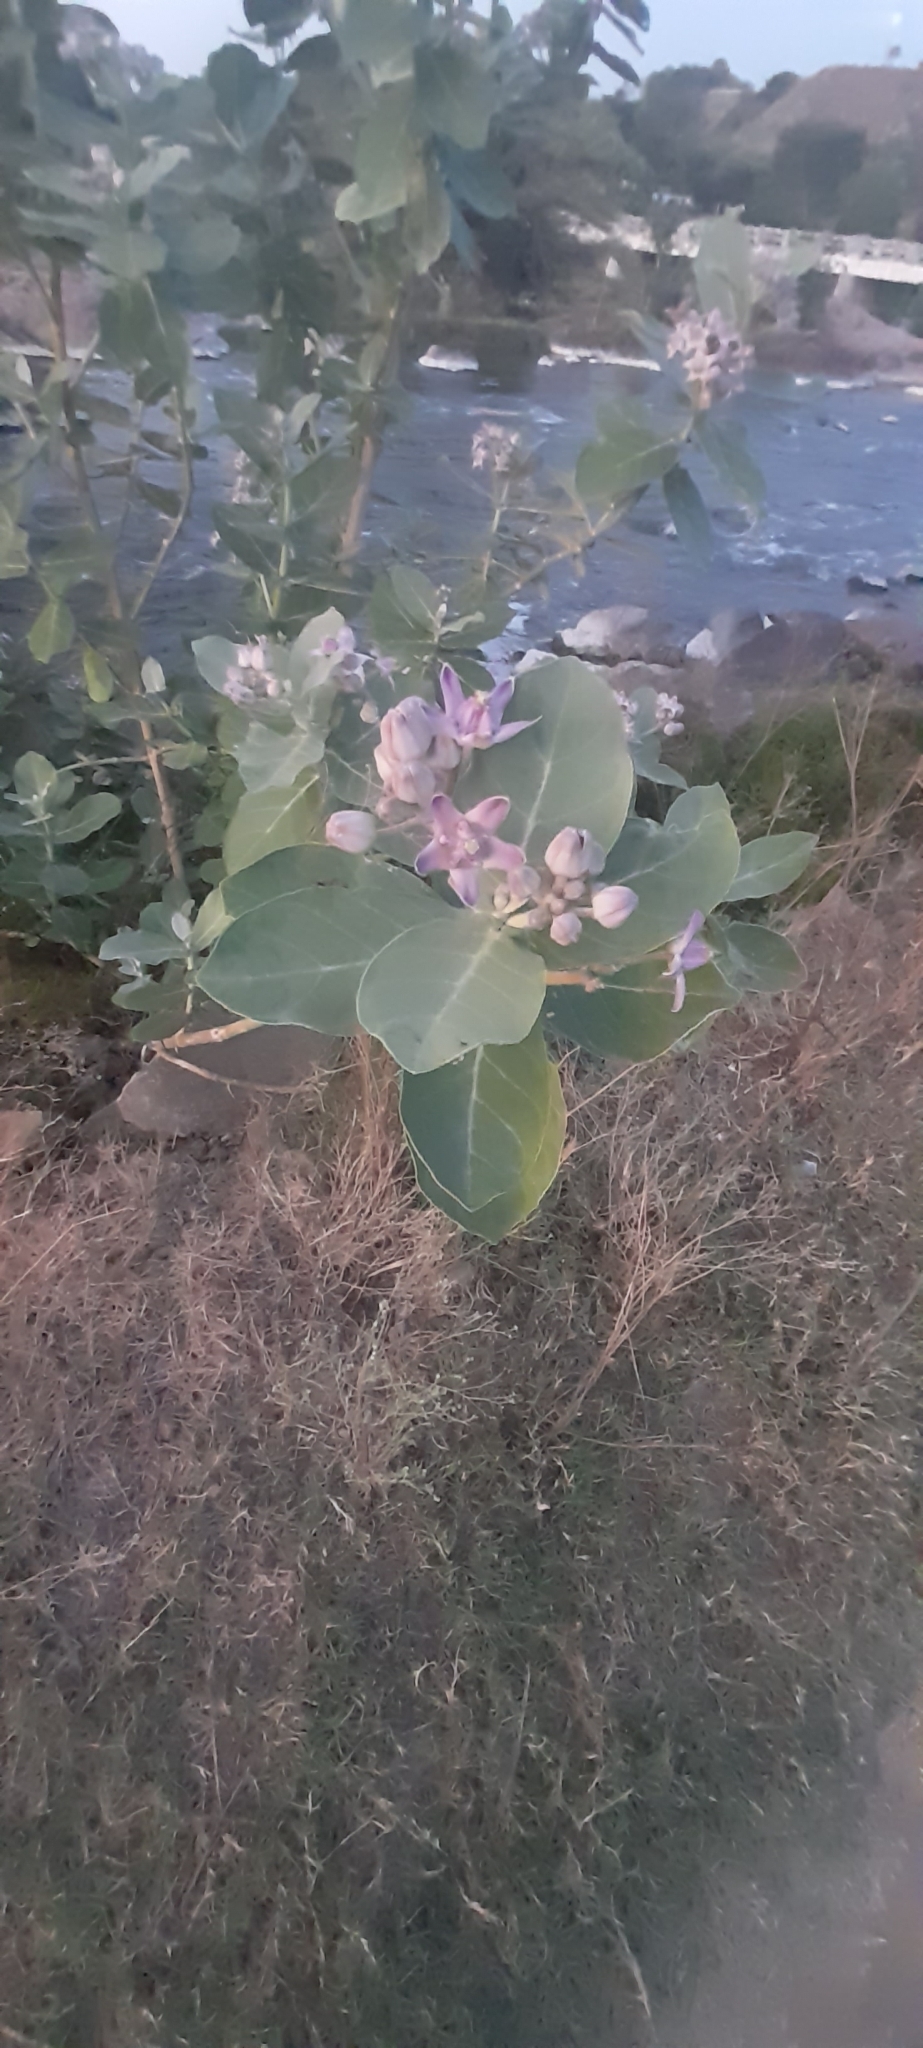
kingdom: Plantae
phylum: Tracheophyta
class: Magnoliopsida
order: Gentianales
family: Apocynaceae
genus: Calotropis
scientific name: Calotropis gigantea
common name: Crown flower
